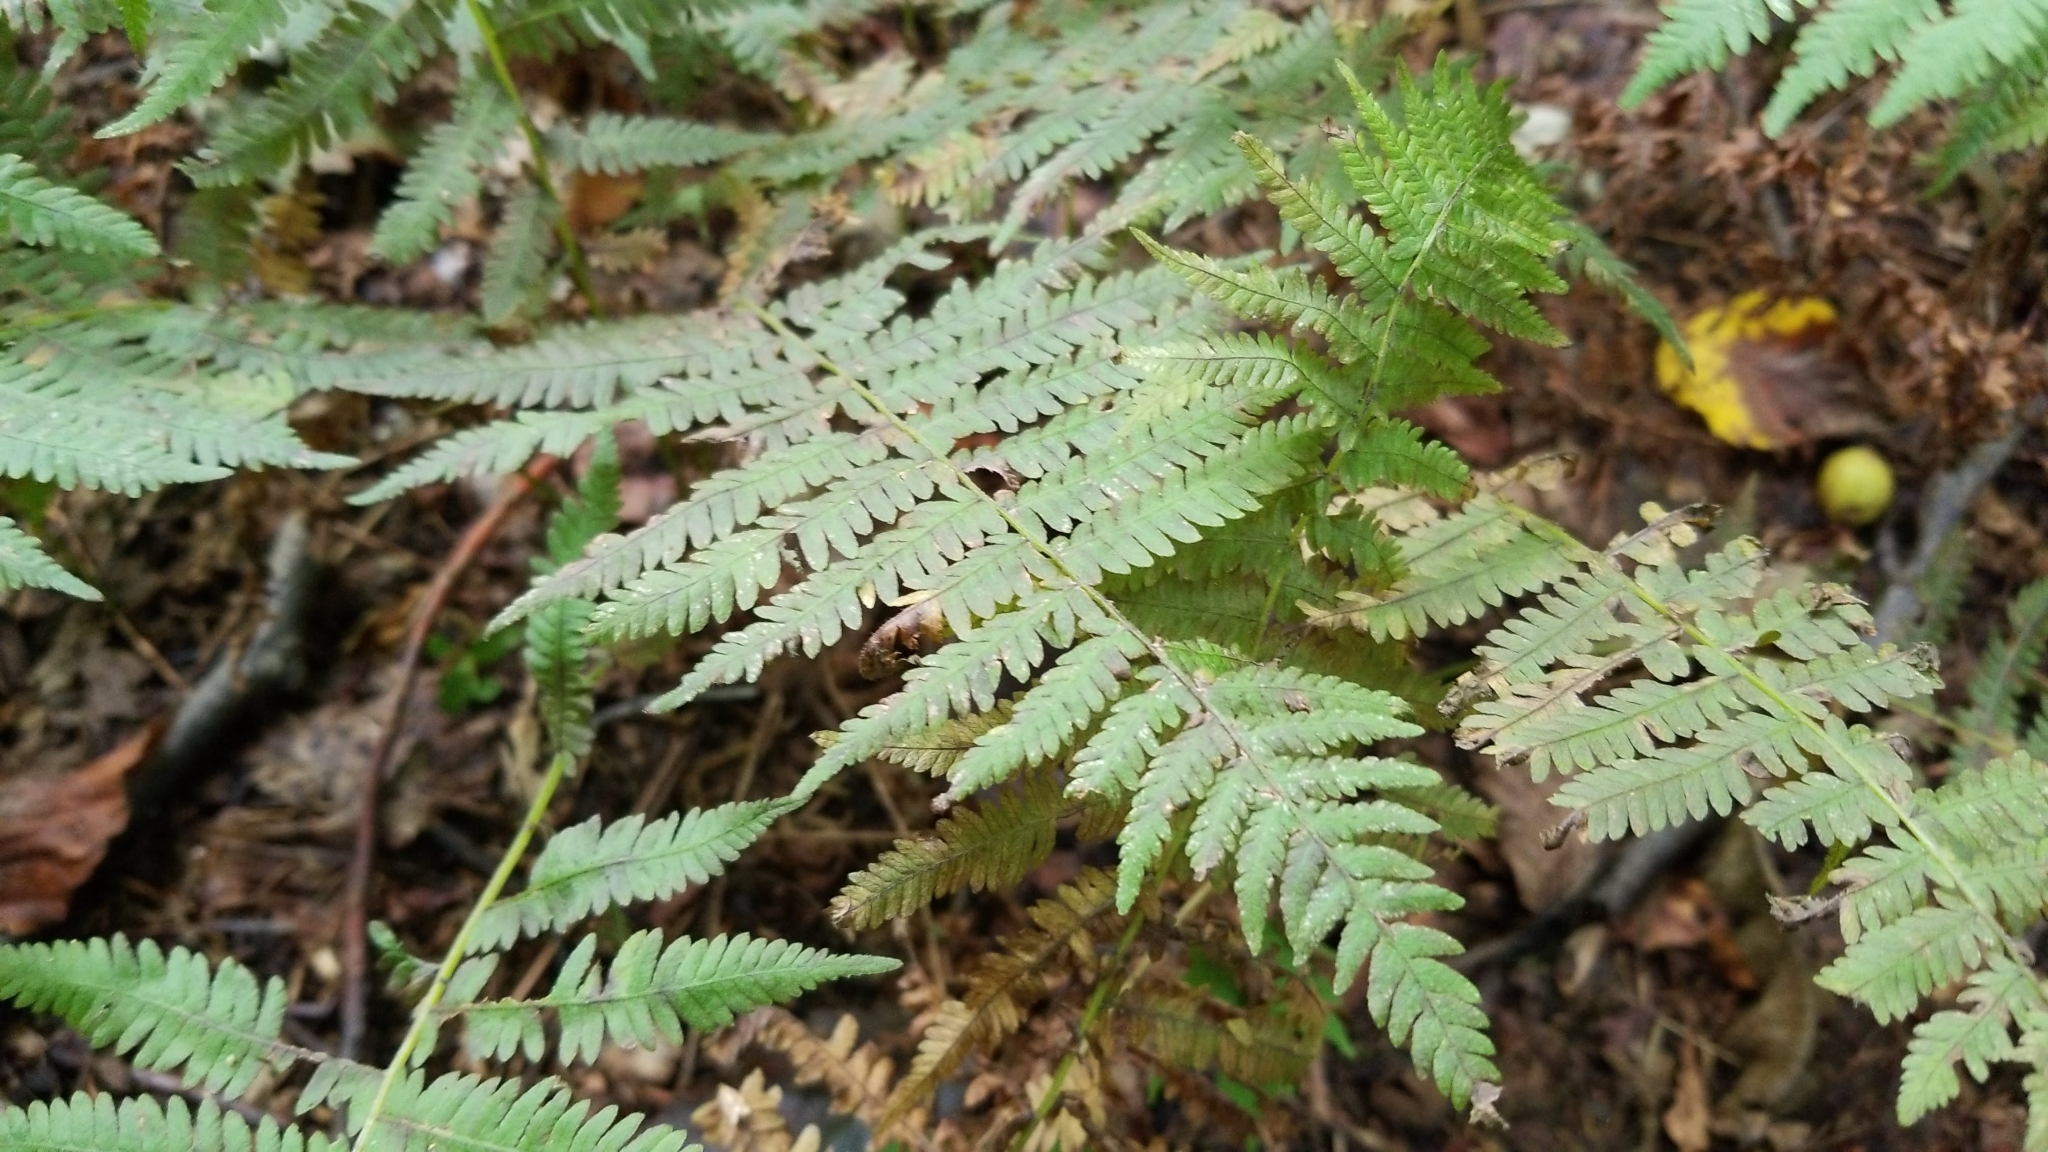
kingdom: Plantae
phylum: Tracheophyta
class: Polypodiopsida
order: Polypodiales
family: Thelypteridaceae
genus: Amauropelta
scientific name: Amauropelta noveboracensis
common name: New york fern
